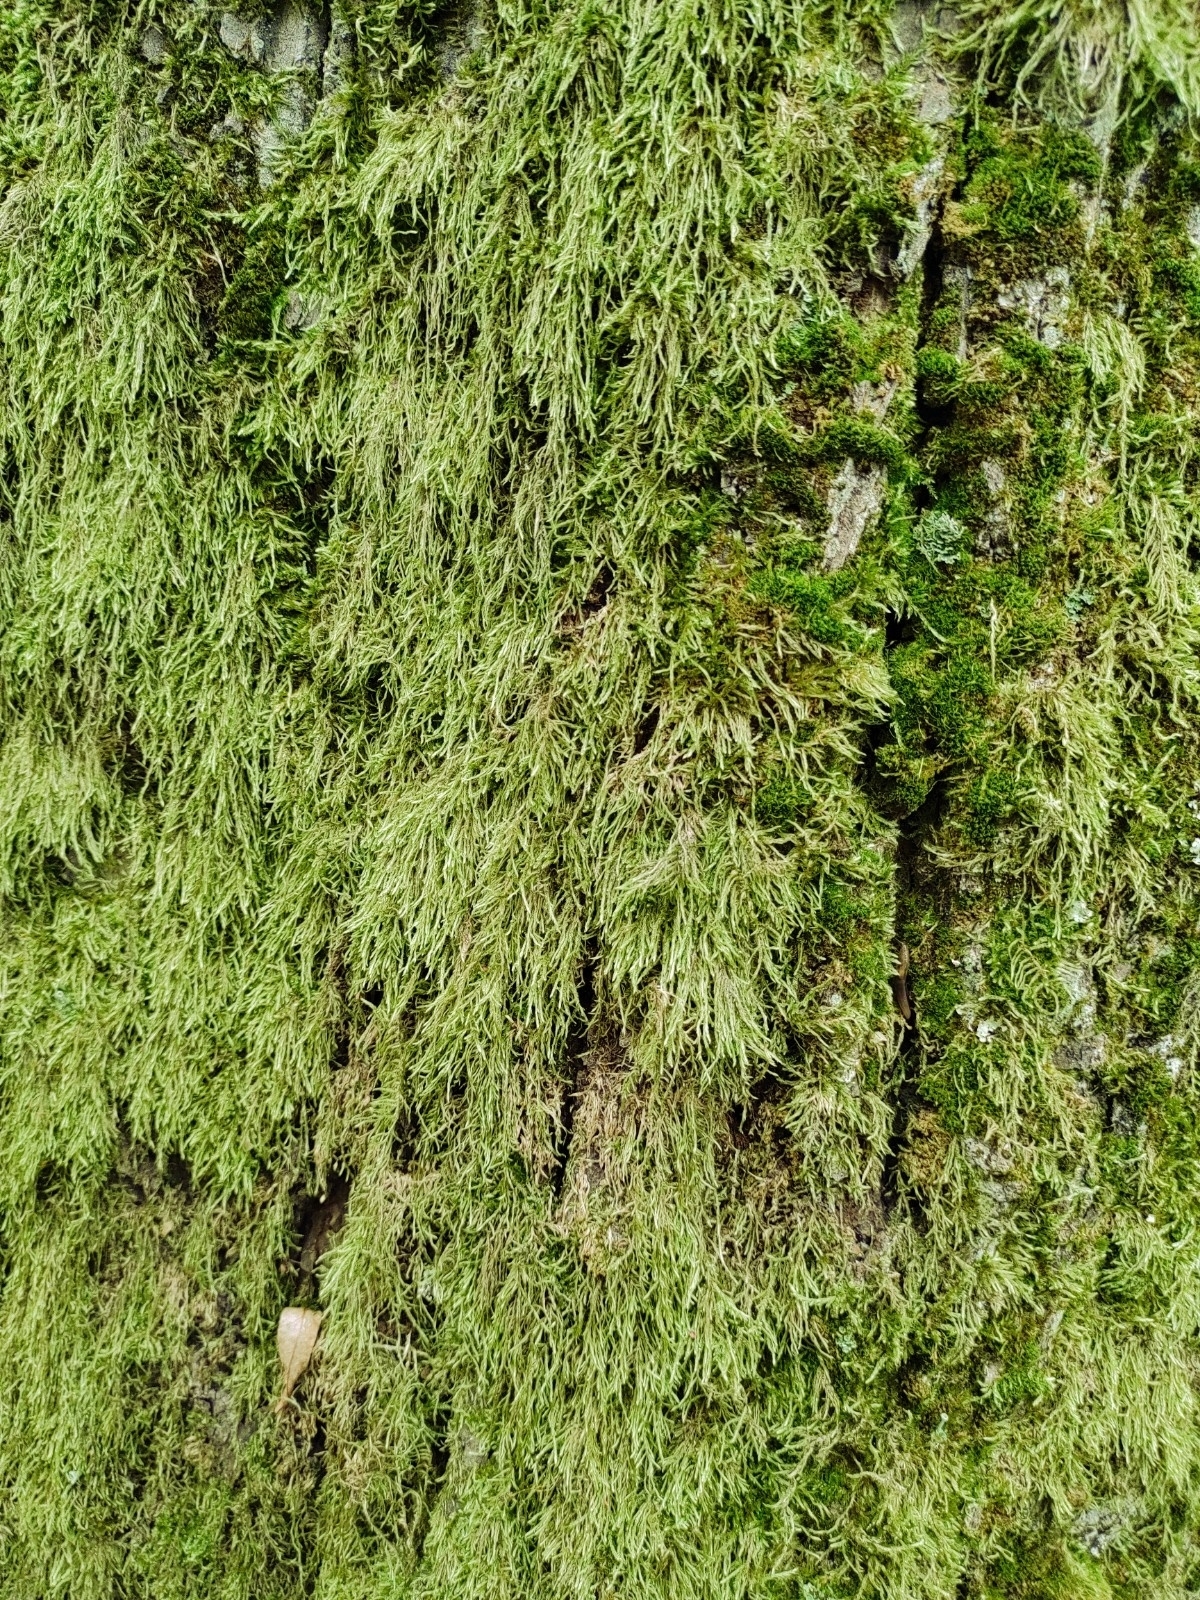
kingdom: Plantae
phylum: Bryophyta
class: Bryopsida
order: Hypnales
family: Hypnaceae
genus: Hypnum
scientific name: Hypnum cupressiforme
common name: Cypress-leaved plait-moss
